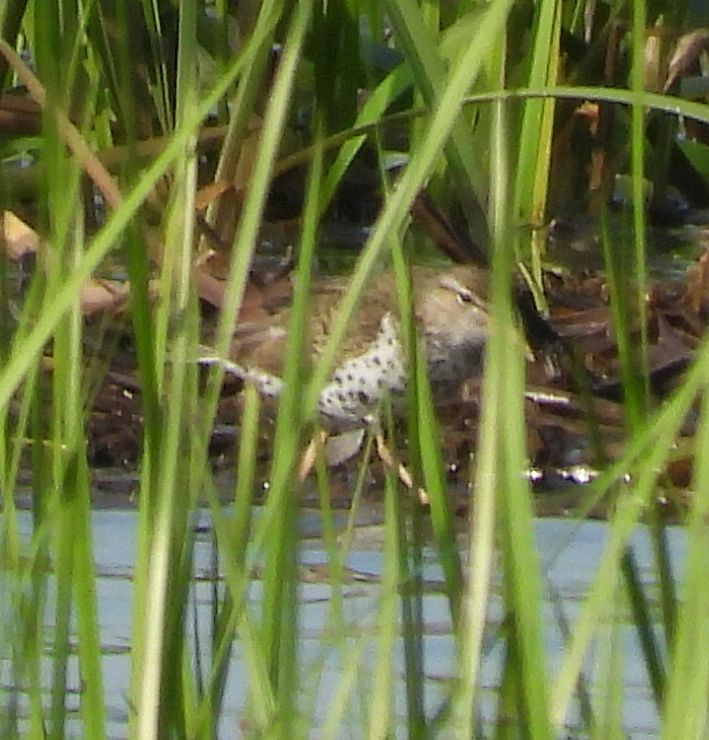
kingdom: Animalia
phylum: Chordata
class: Aves
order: Charadriiformes
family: Scolopacidae
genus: Actitis
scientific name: Actitis macularius
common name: Spotted sandpiper
